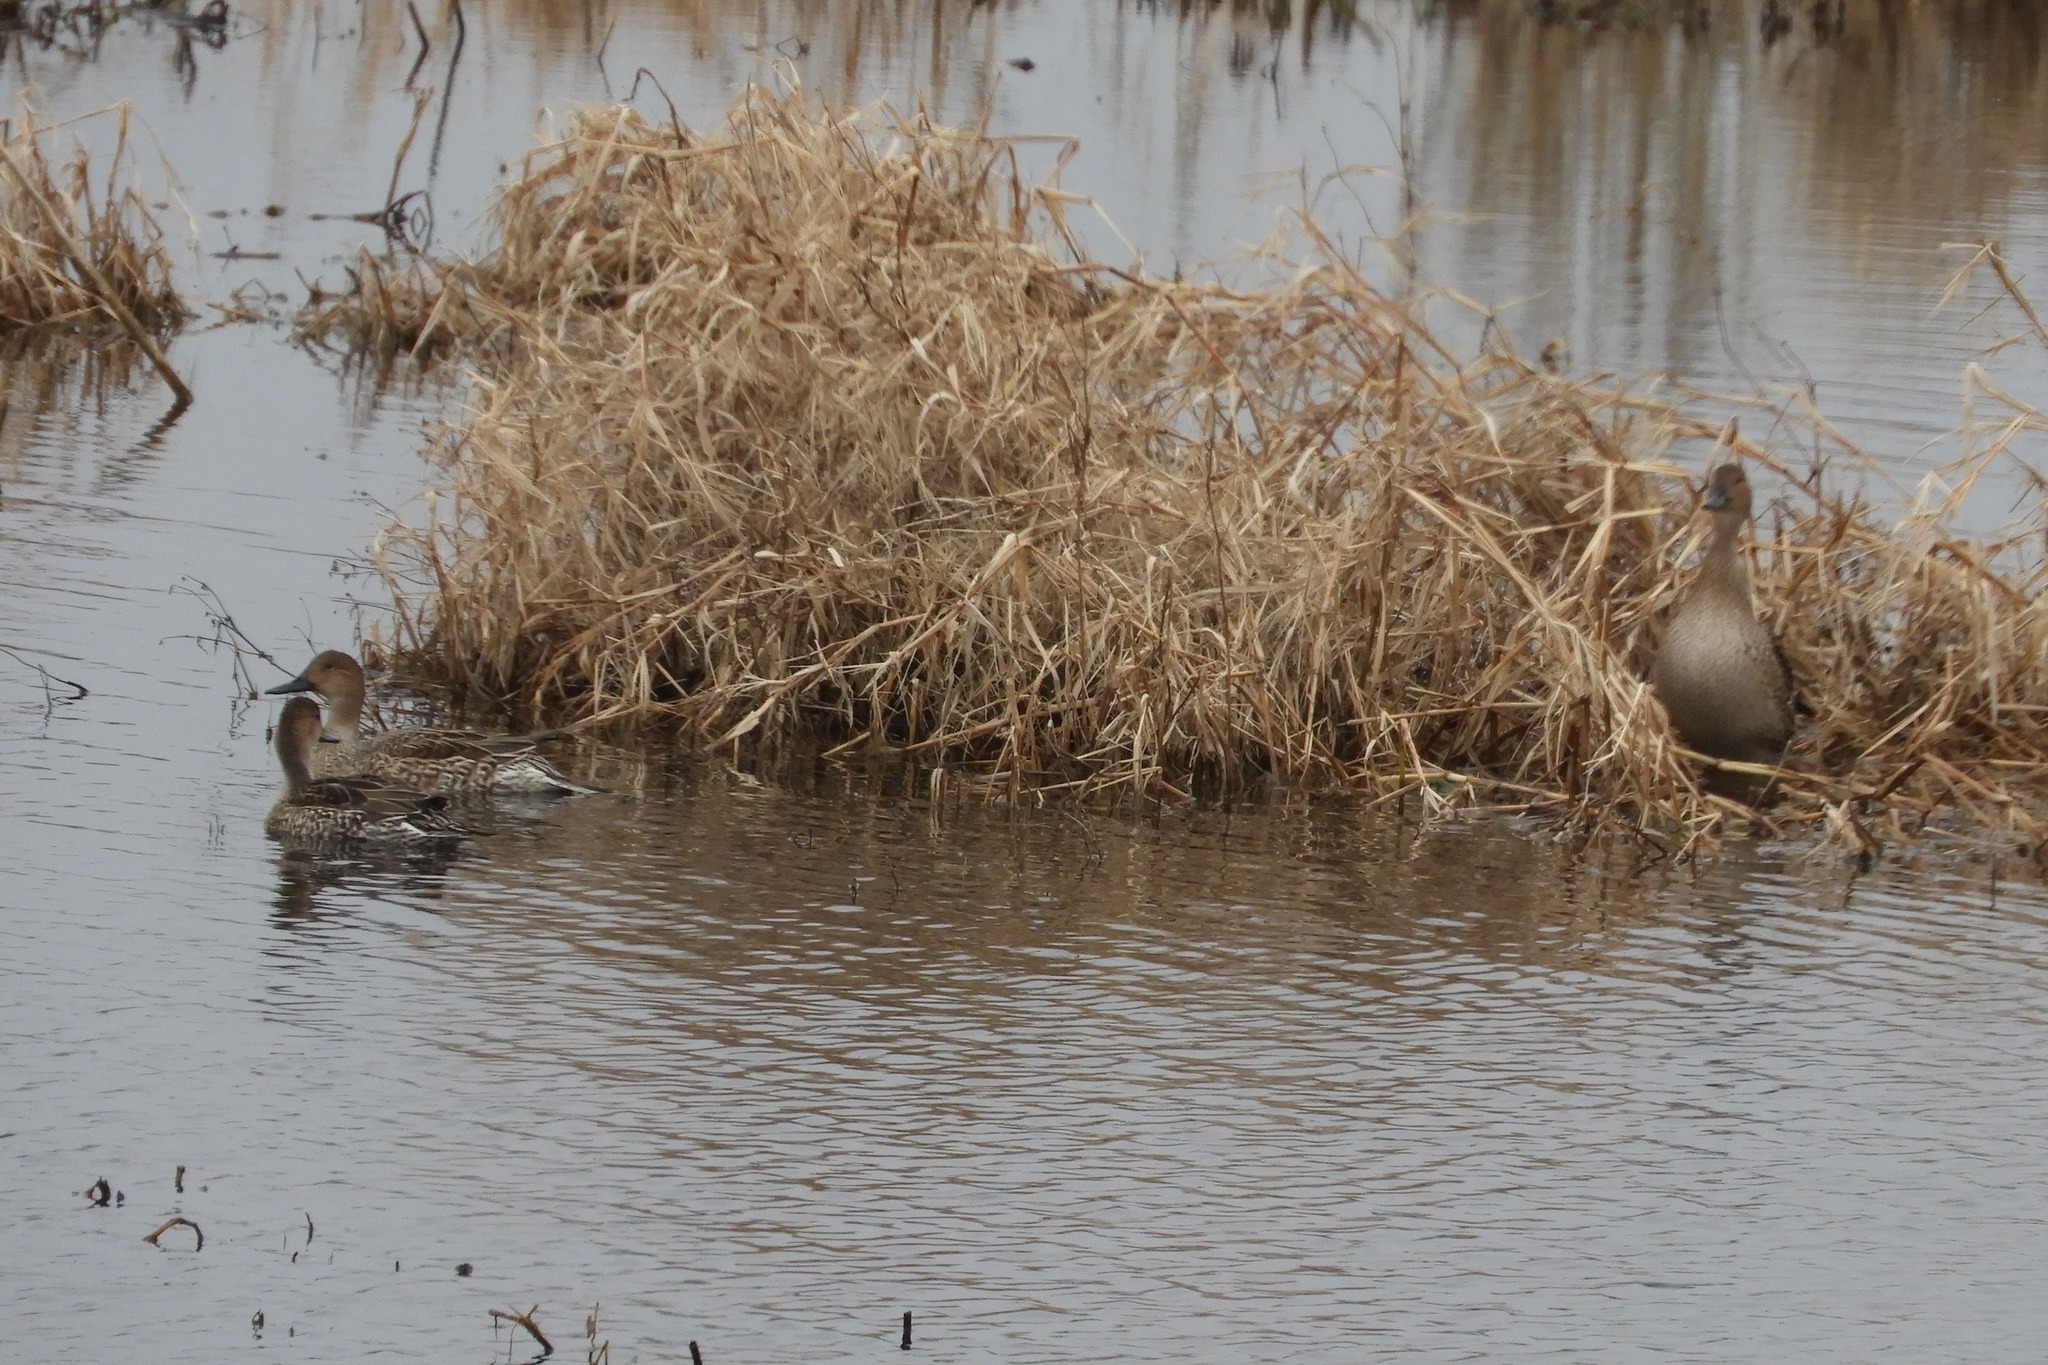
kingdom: Animalia
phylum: Chordata
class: Aves
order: Anseriformes
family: Anatidae
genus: Anas
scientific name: Anas acuta
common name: Northern pintail
